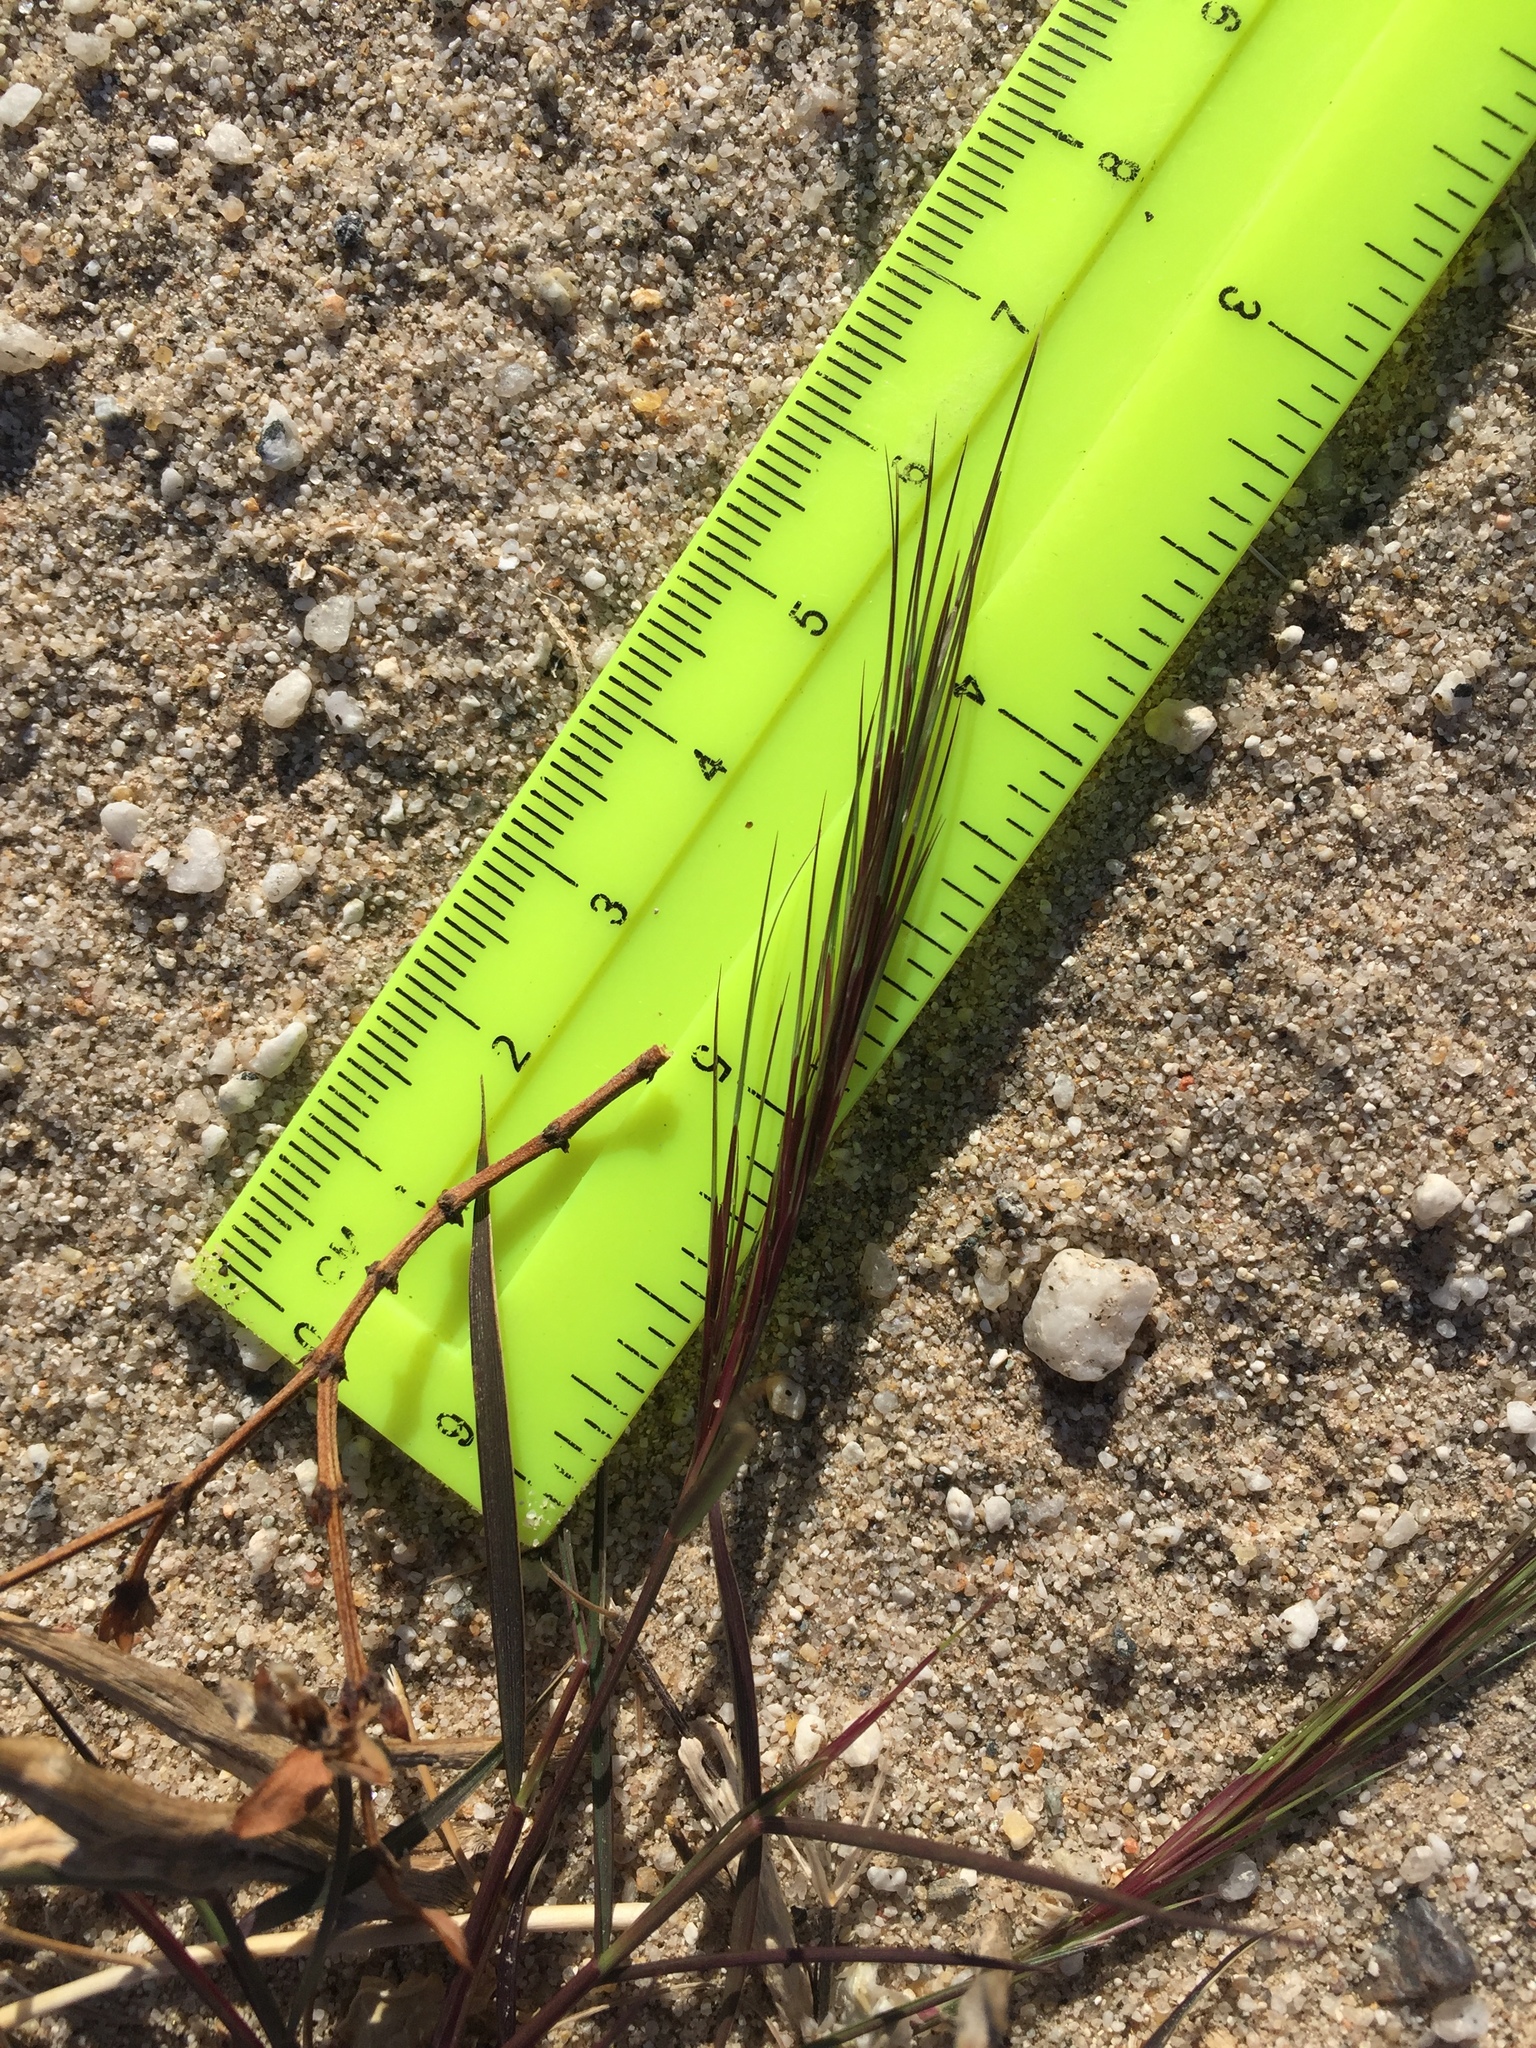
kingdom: Plantae
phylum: Tracheophyta
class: Liliopsida
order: Poales
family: Poaceae
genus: Aristida
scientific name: Aristida adscensionis
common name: Sixweeks threeawn
